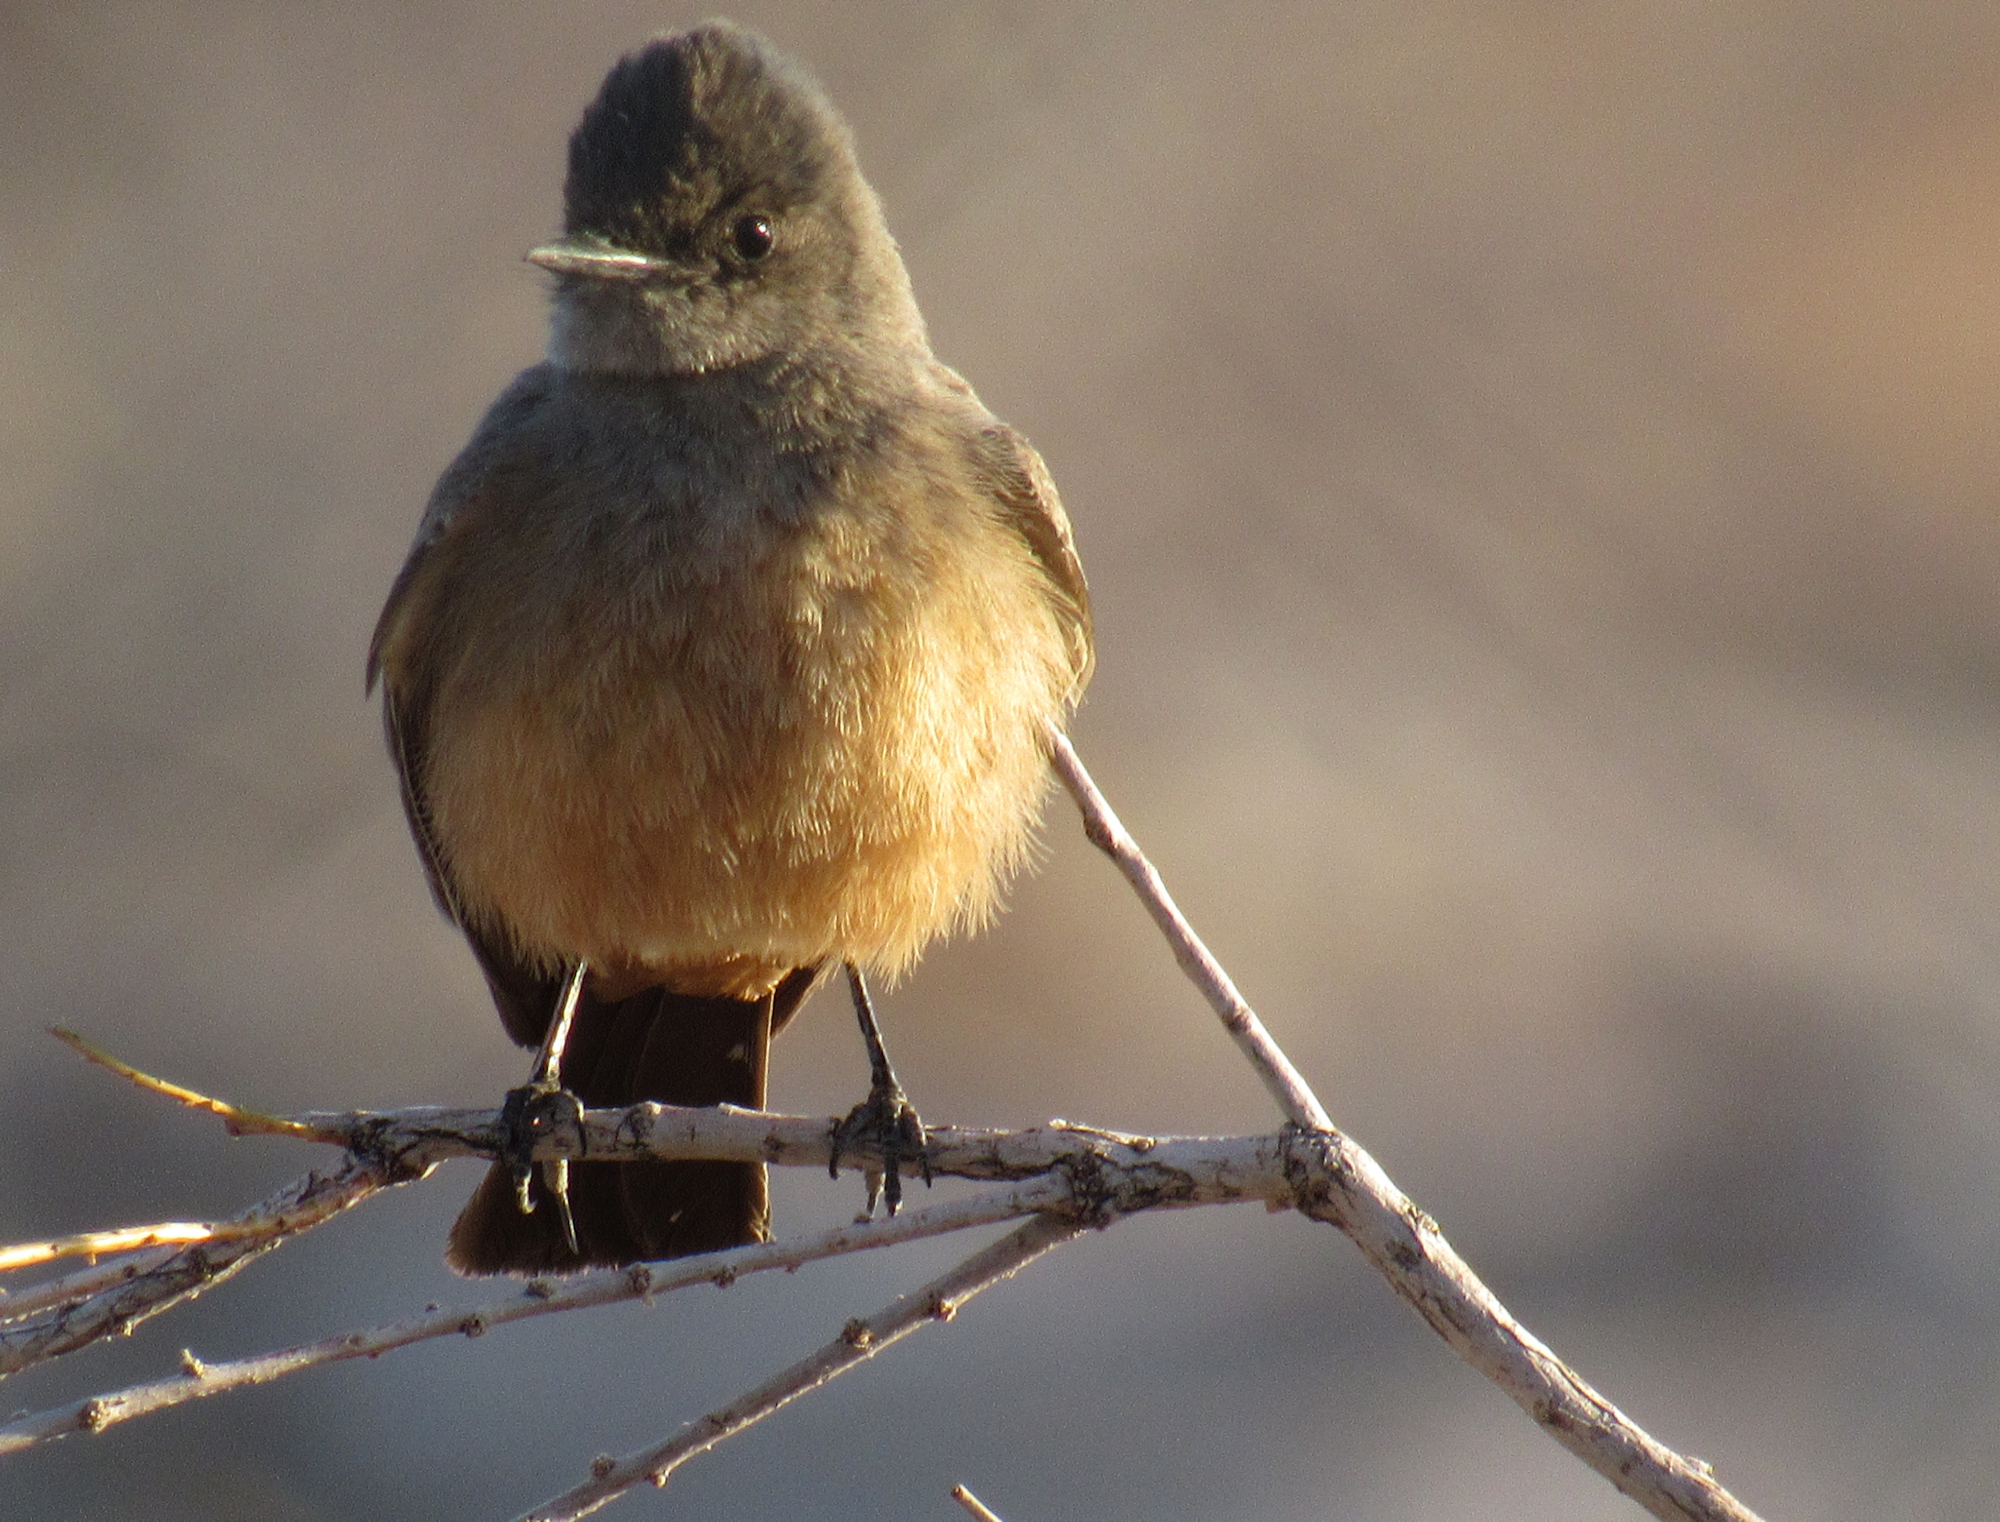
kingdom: Animalia
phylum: Chordata
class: Aves
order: Passeriformes
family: Tyrannidae
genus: Sayornis
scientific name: Sayornis saya
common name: Say's phoebe
